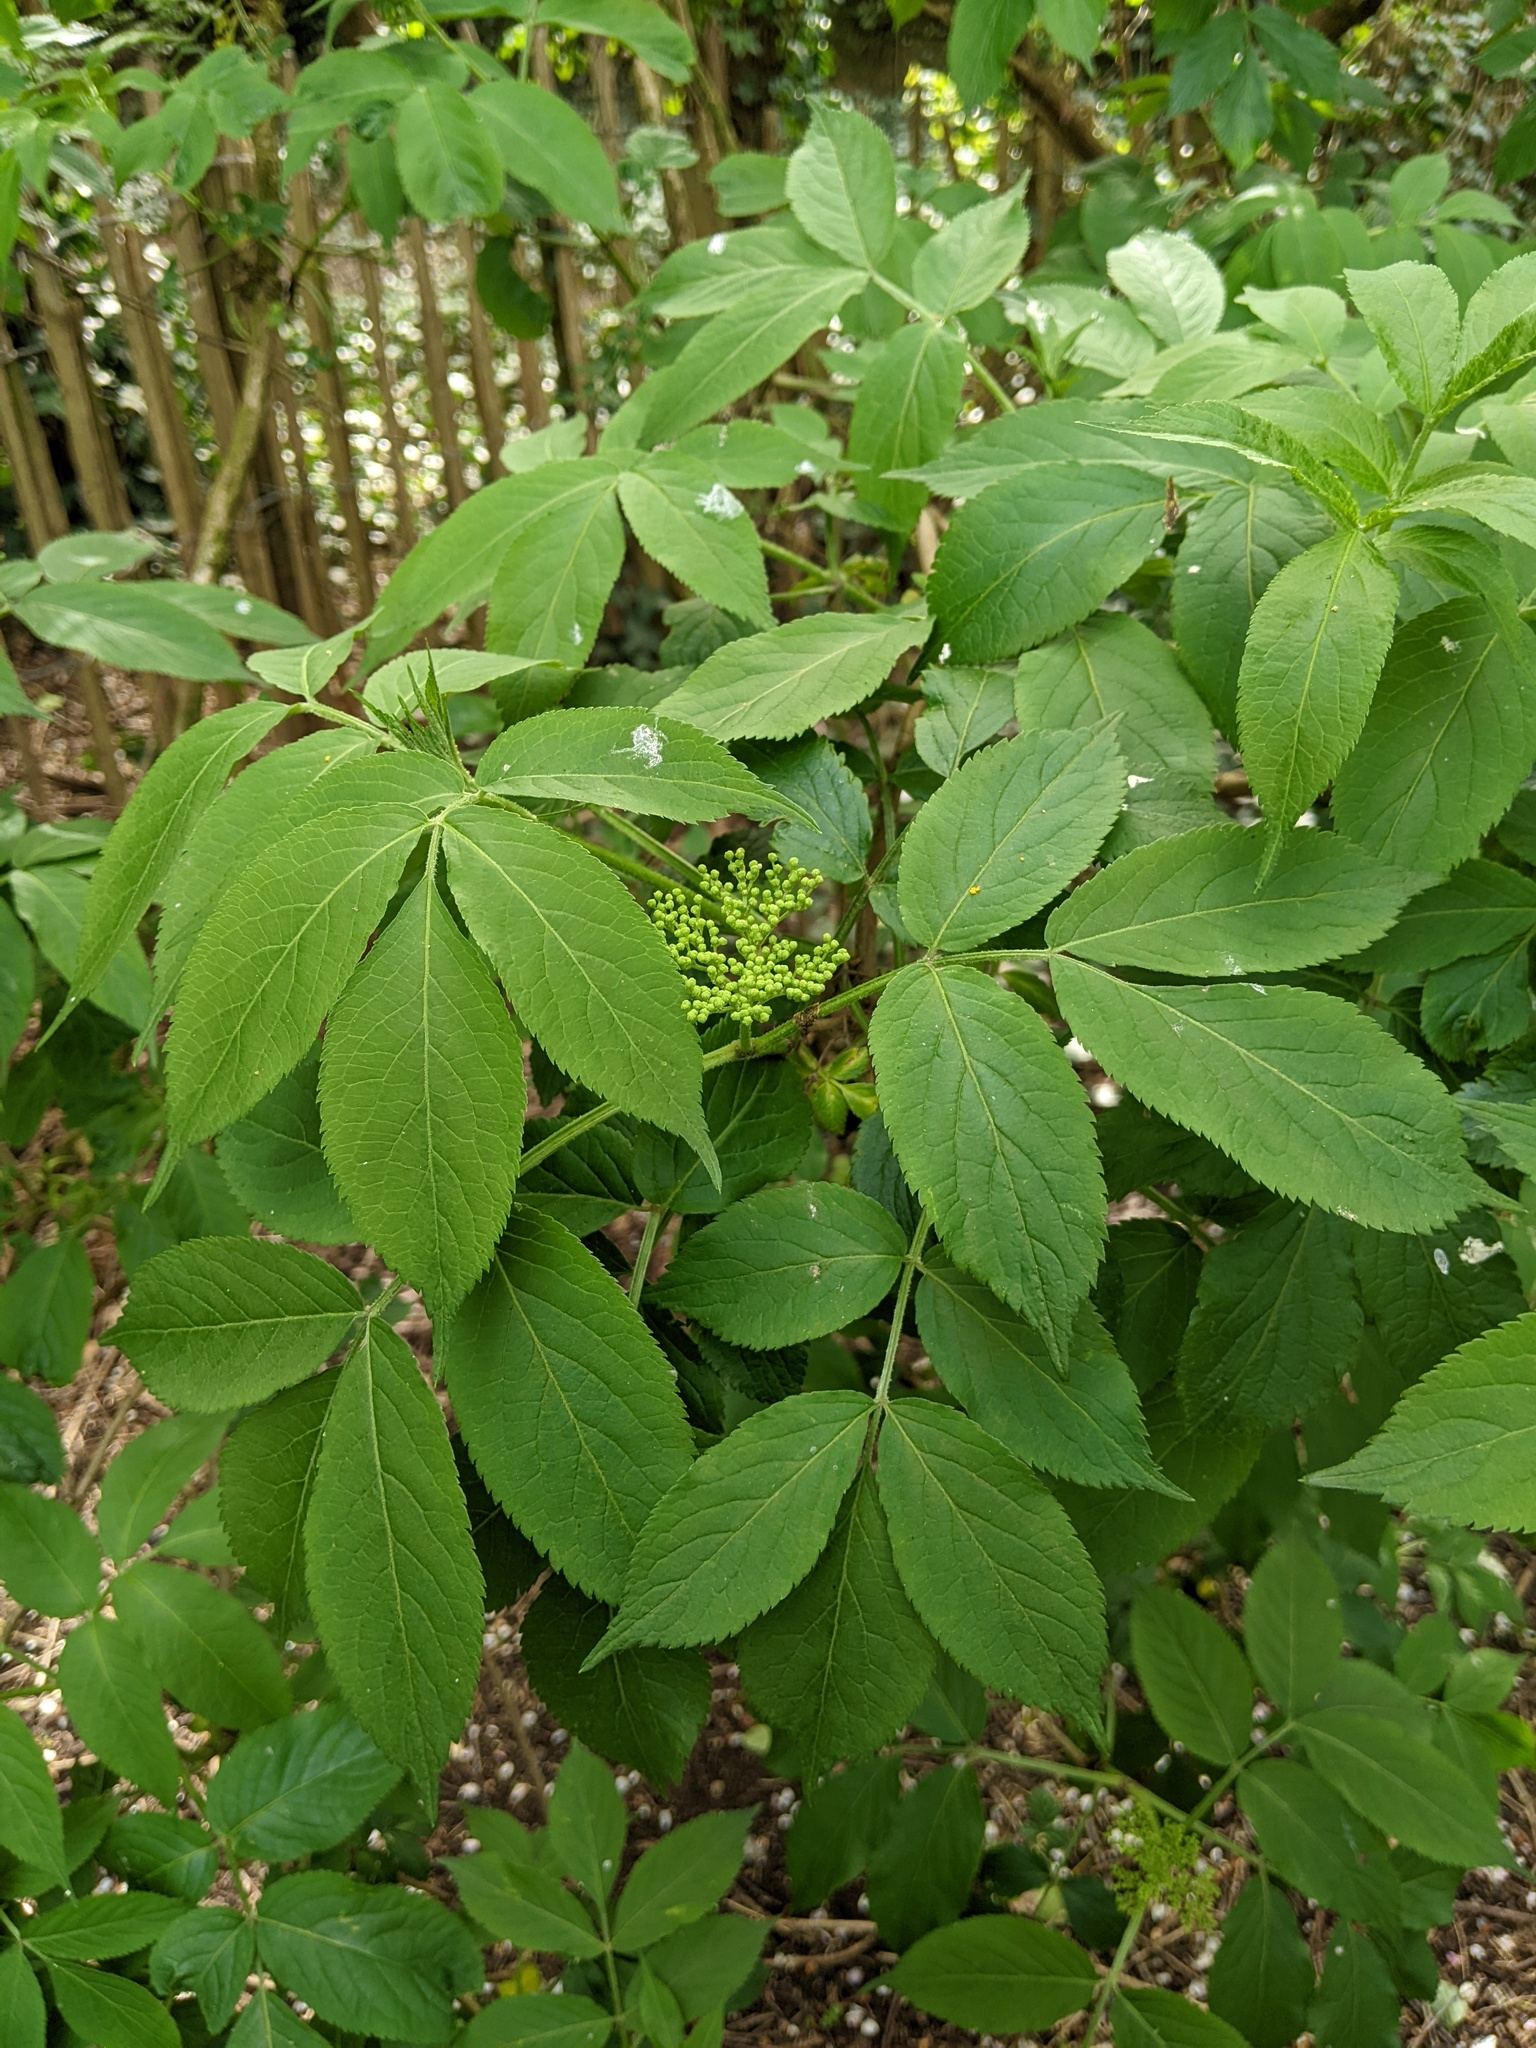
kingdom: Plantae
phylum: Tracheophyta
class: Magnoliopsida
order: Dipsacales
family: Viburnaceae
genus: Sambucus
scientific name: Sambucus nigra
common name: Elder
